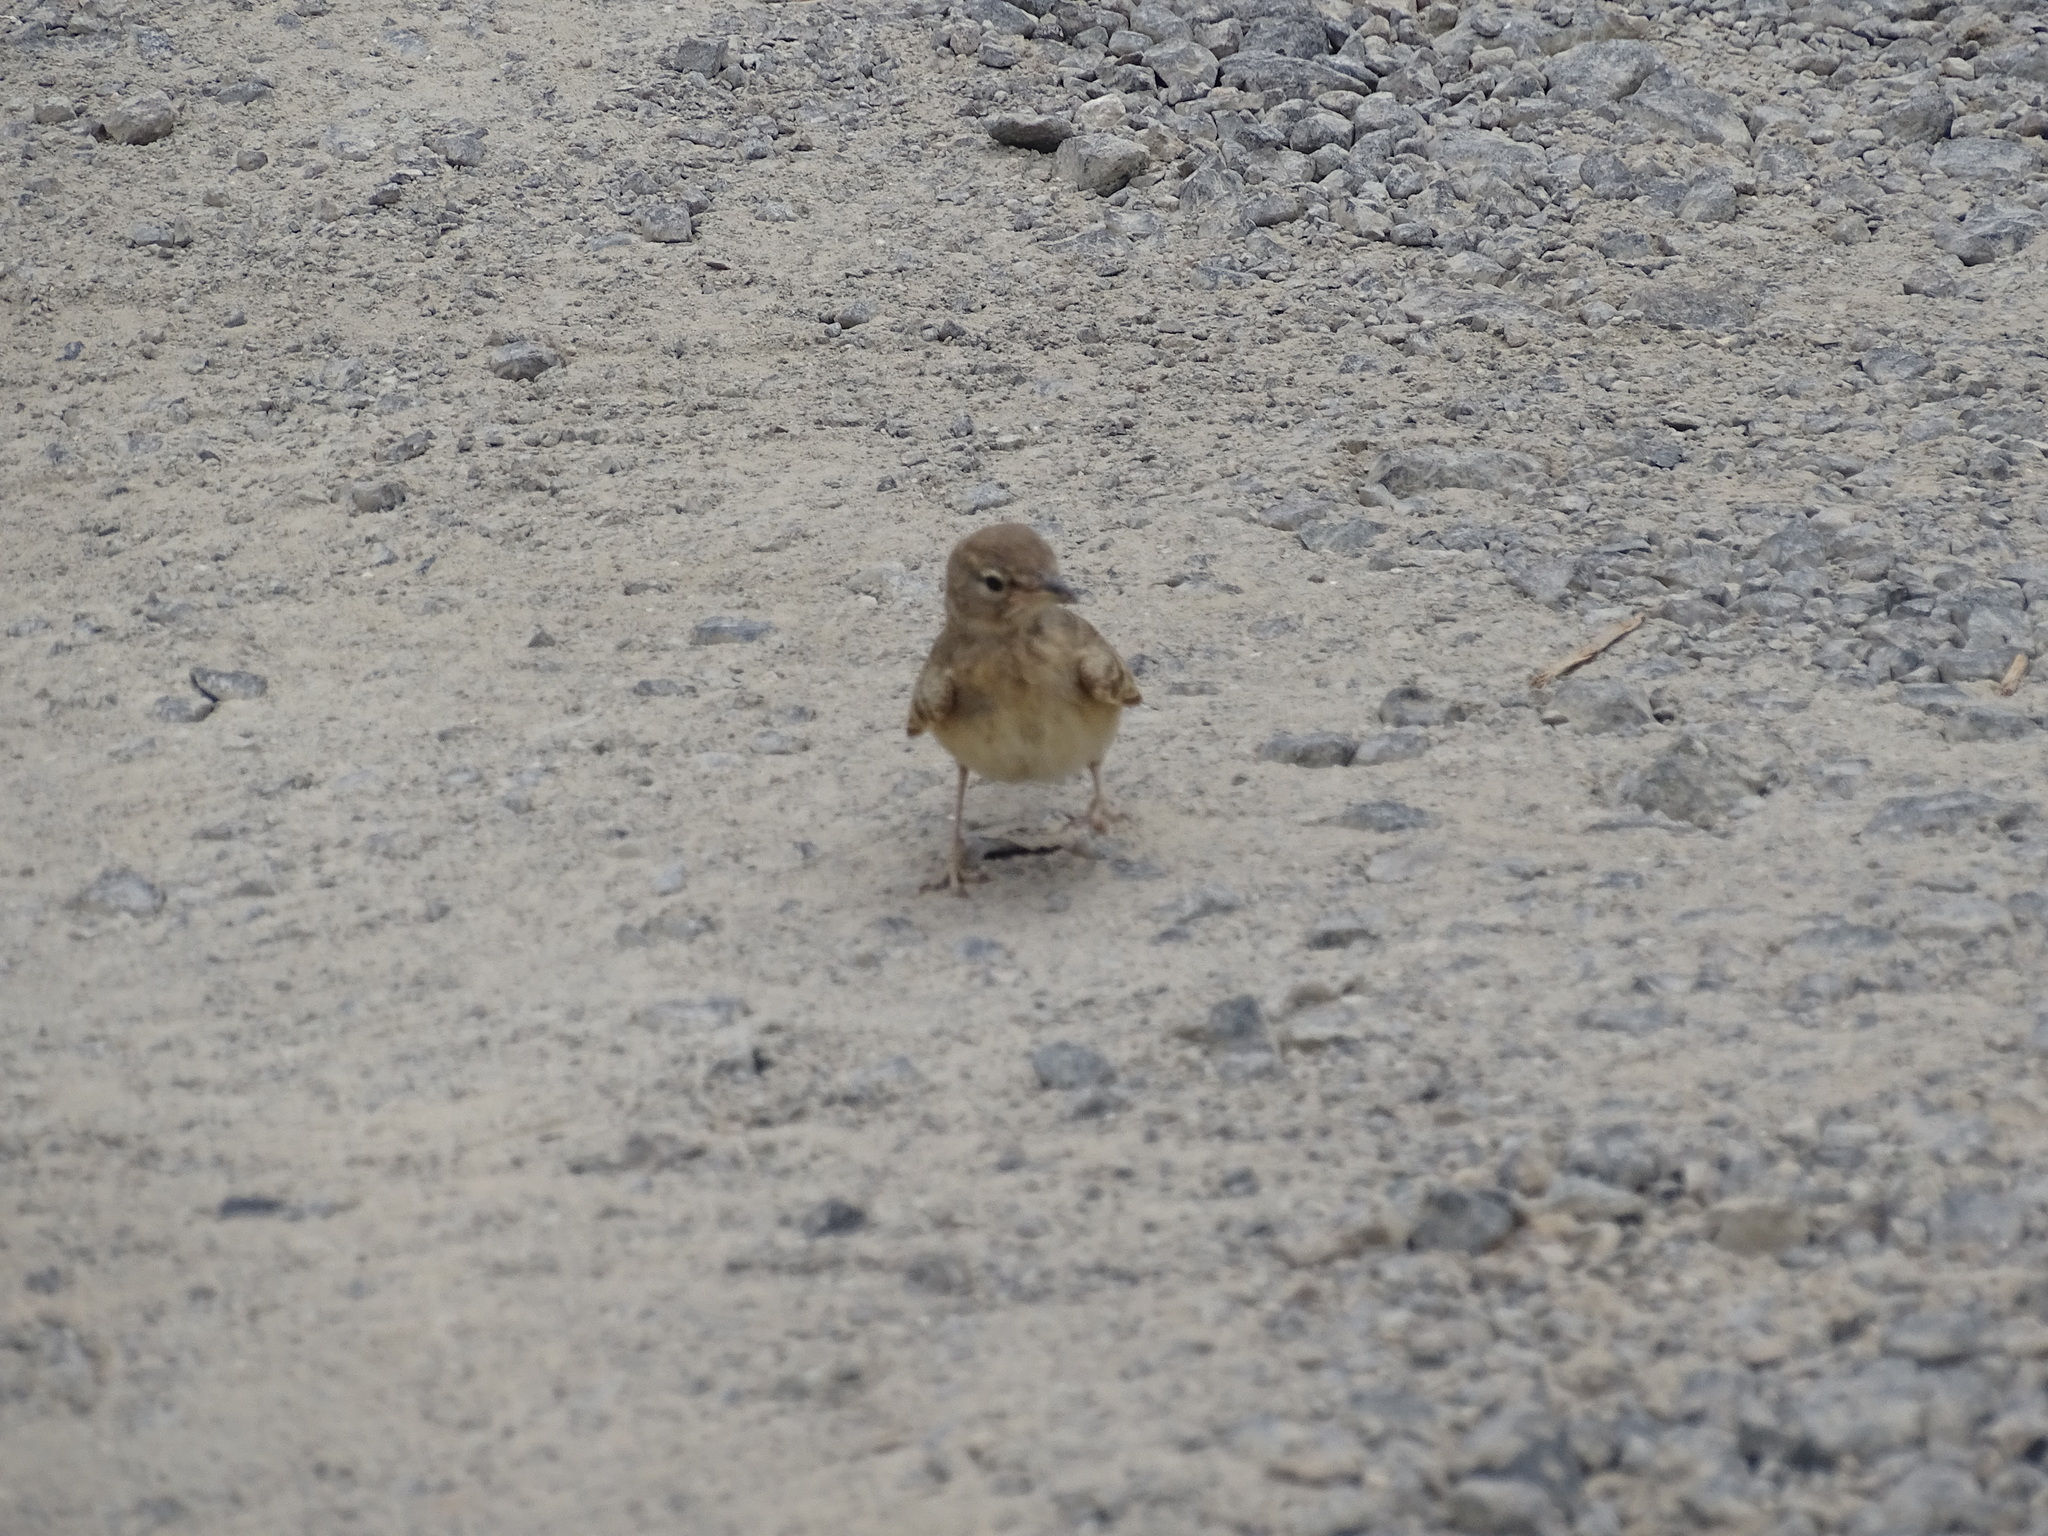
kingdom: Animalia
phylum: Chordata
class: Aves
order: Passeriformes
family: Alaudidae
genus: Ammomanes
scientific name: Ammomanes deserti
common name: Desert lark
